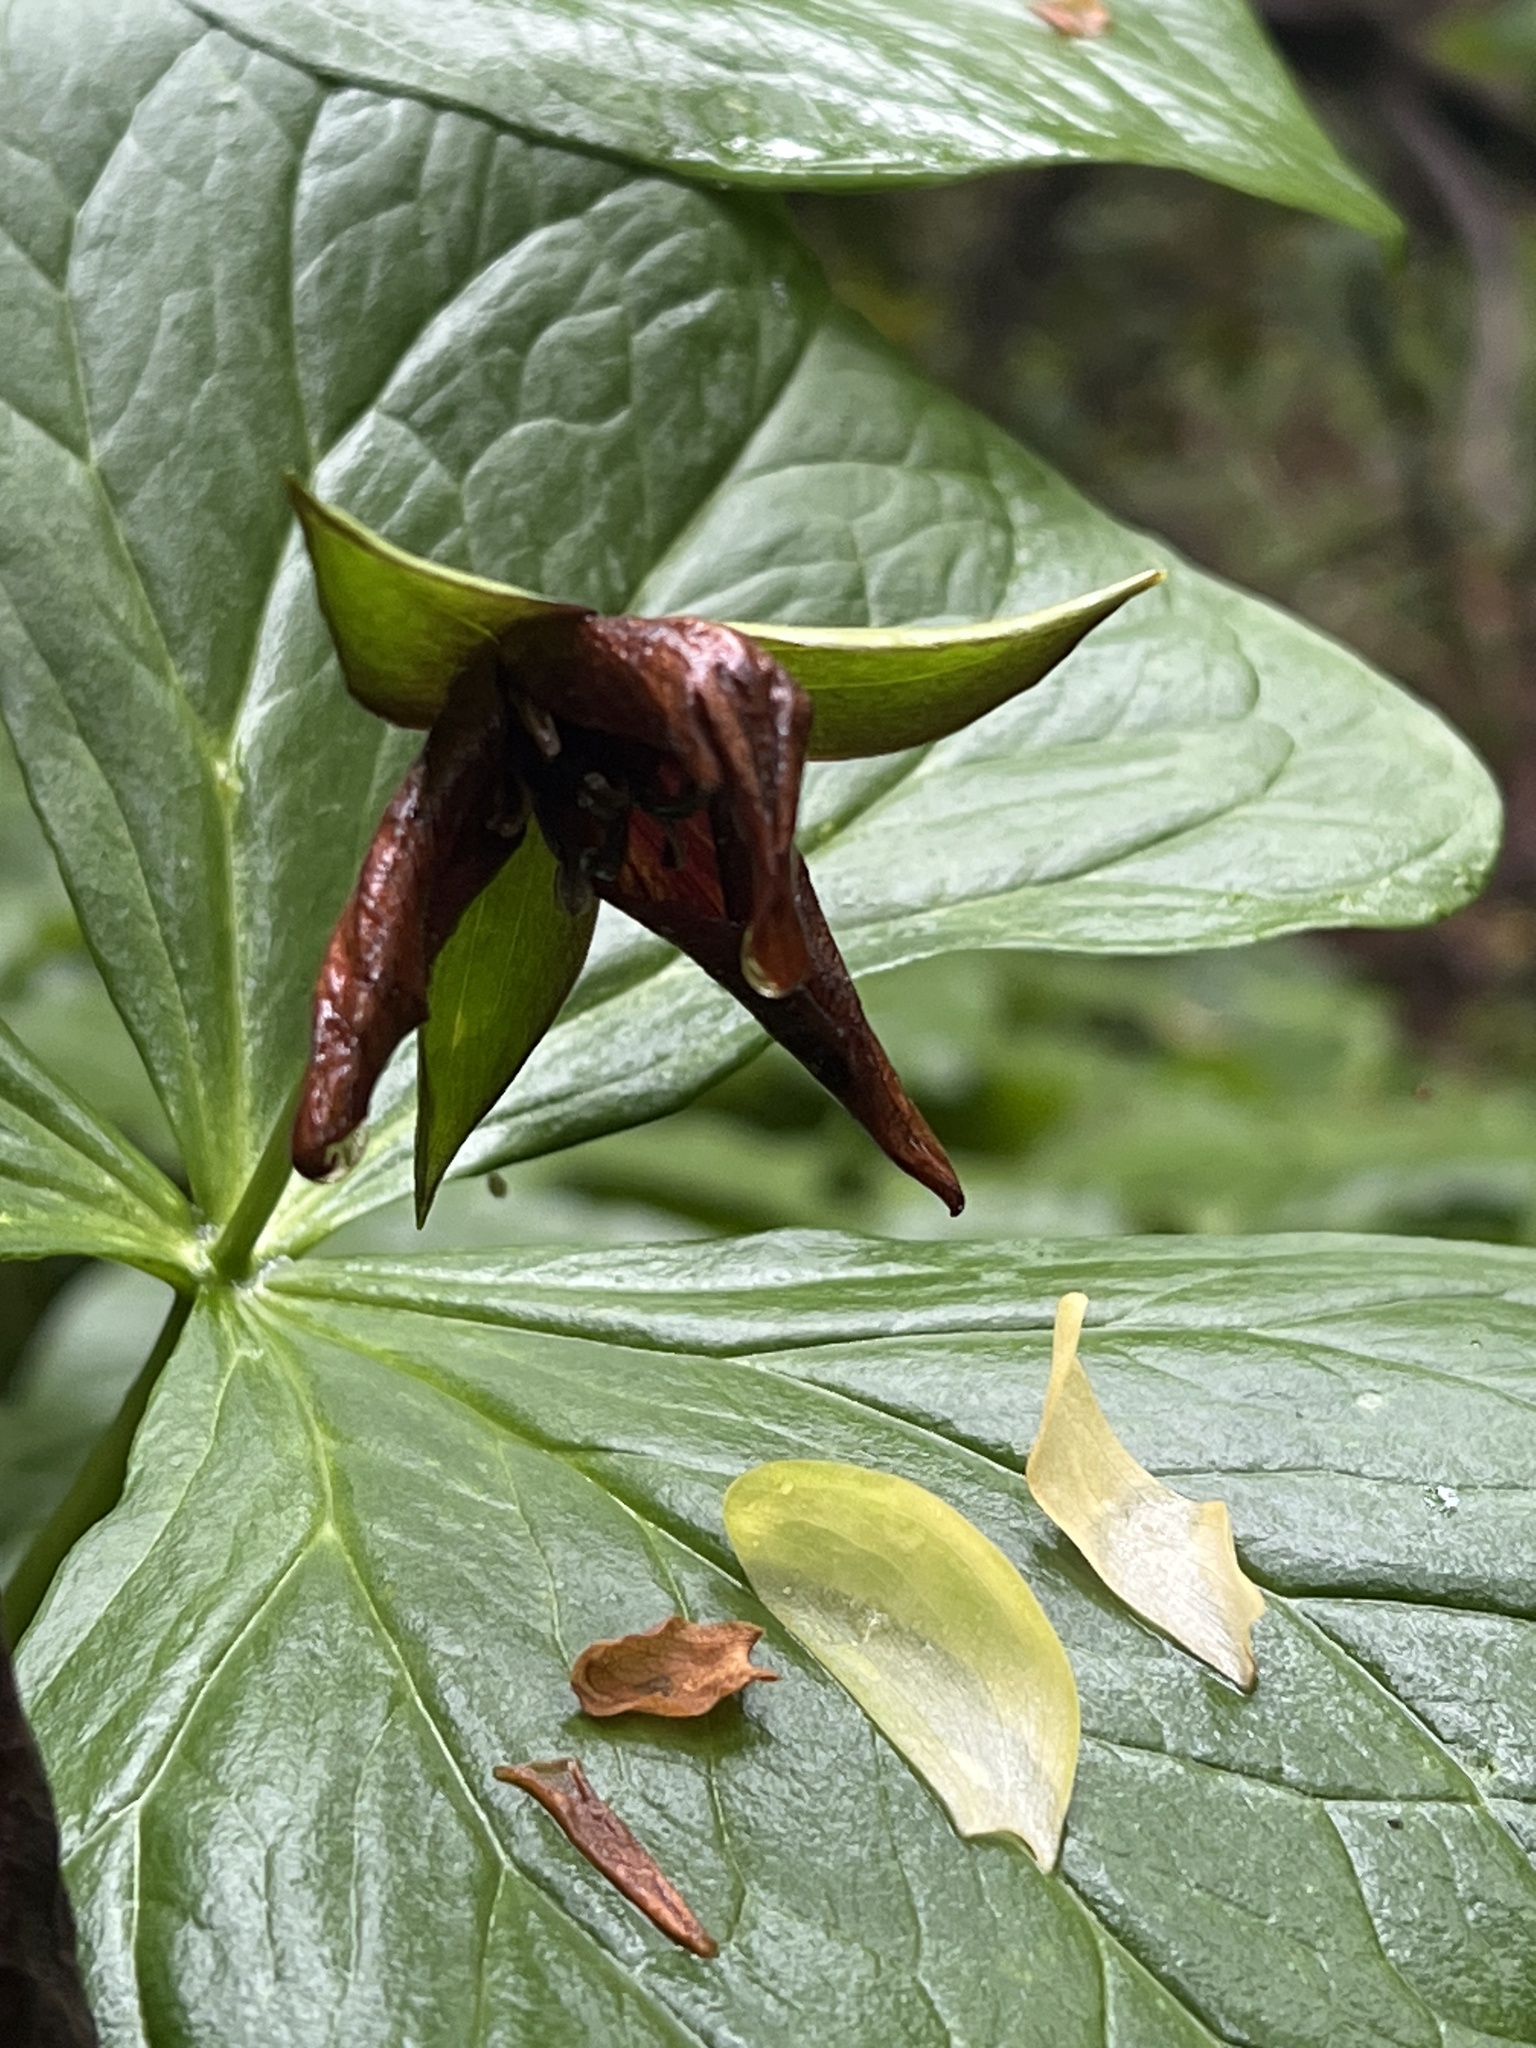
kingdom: Plantae
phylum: Tracheophyta
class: Liliopsida
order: Liliales
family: Melanthiaceae
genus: Trillium
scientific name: Trillium erectum
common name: Purple trillium
